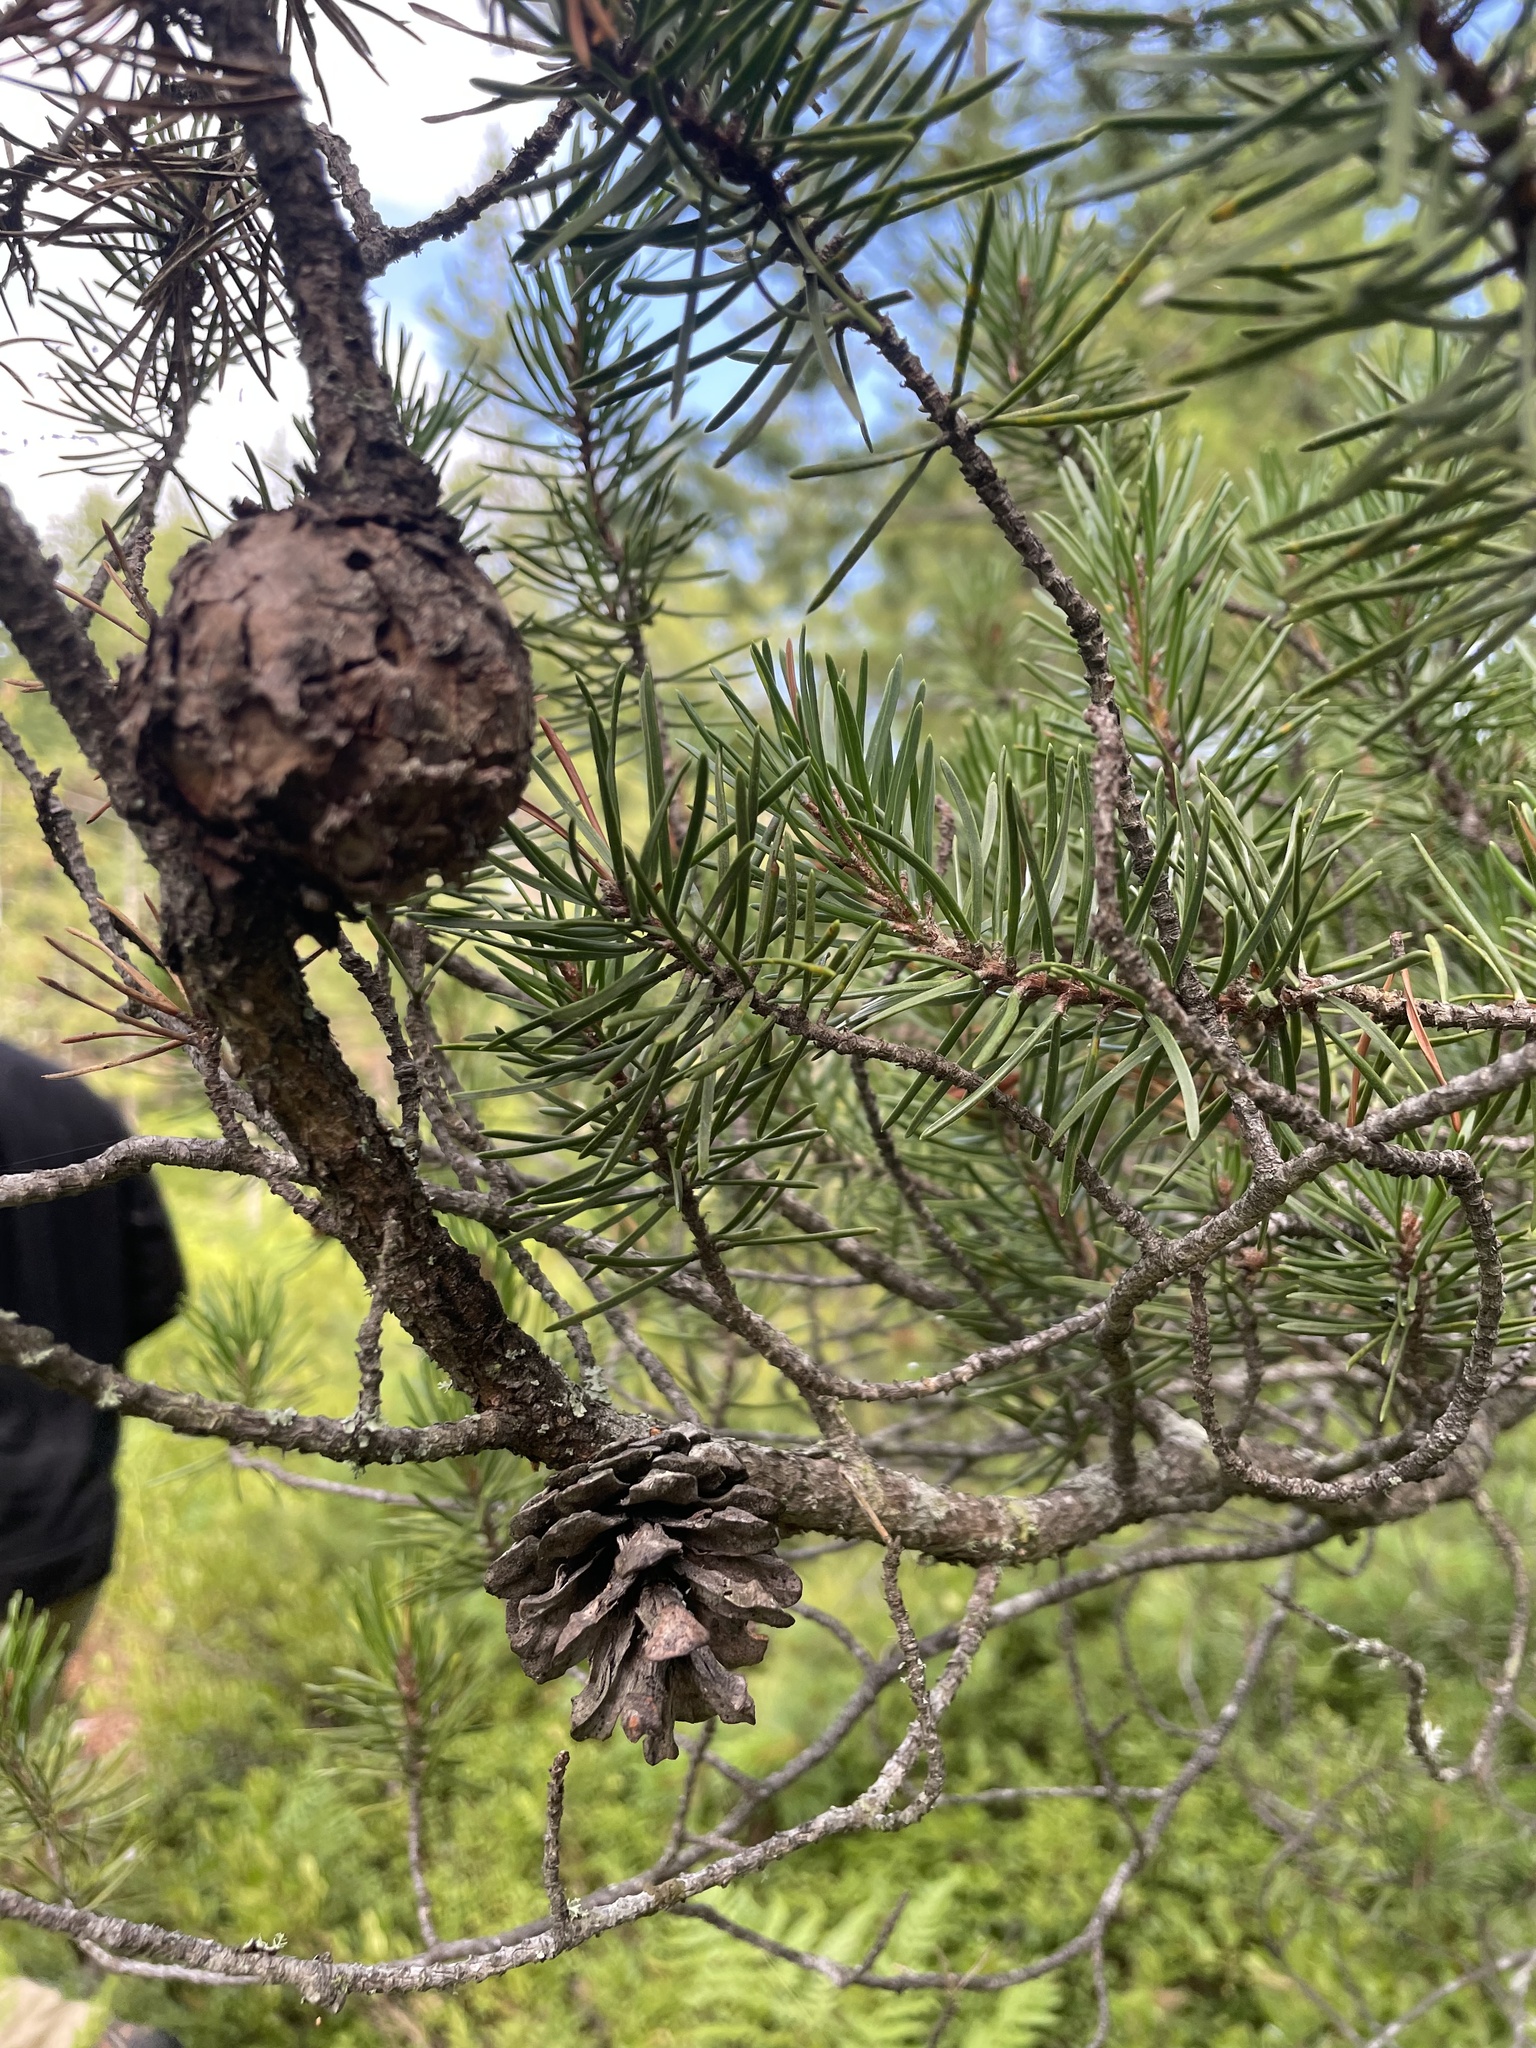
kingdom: Plantae
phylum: Tracheophyta
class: Pinopsida
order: Pinales
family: Pinaceae
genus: Pinus
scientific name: Pinus banksiana
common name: Jack pine
